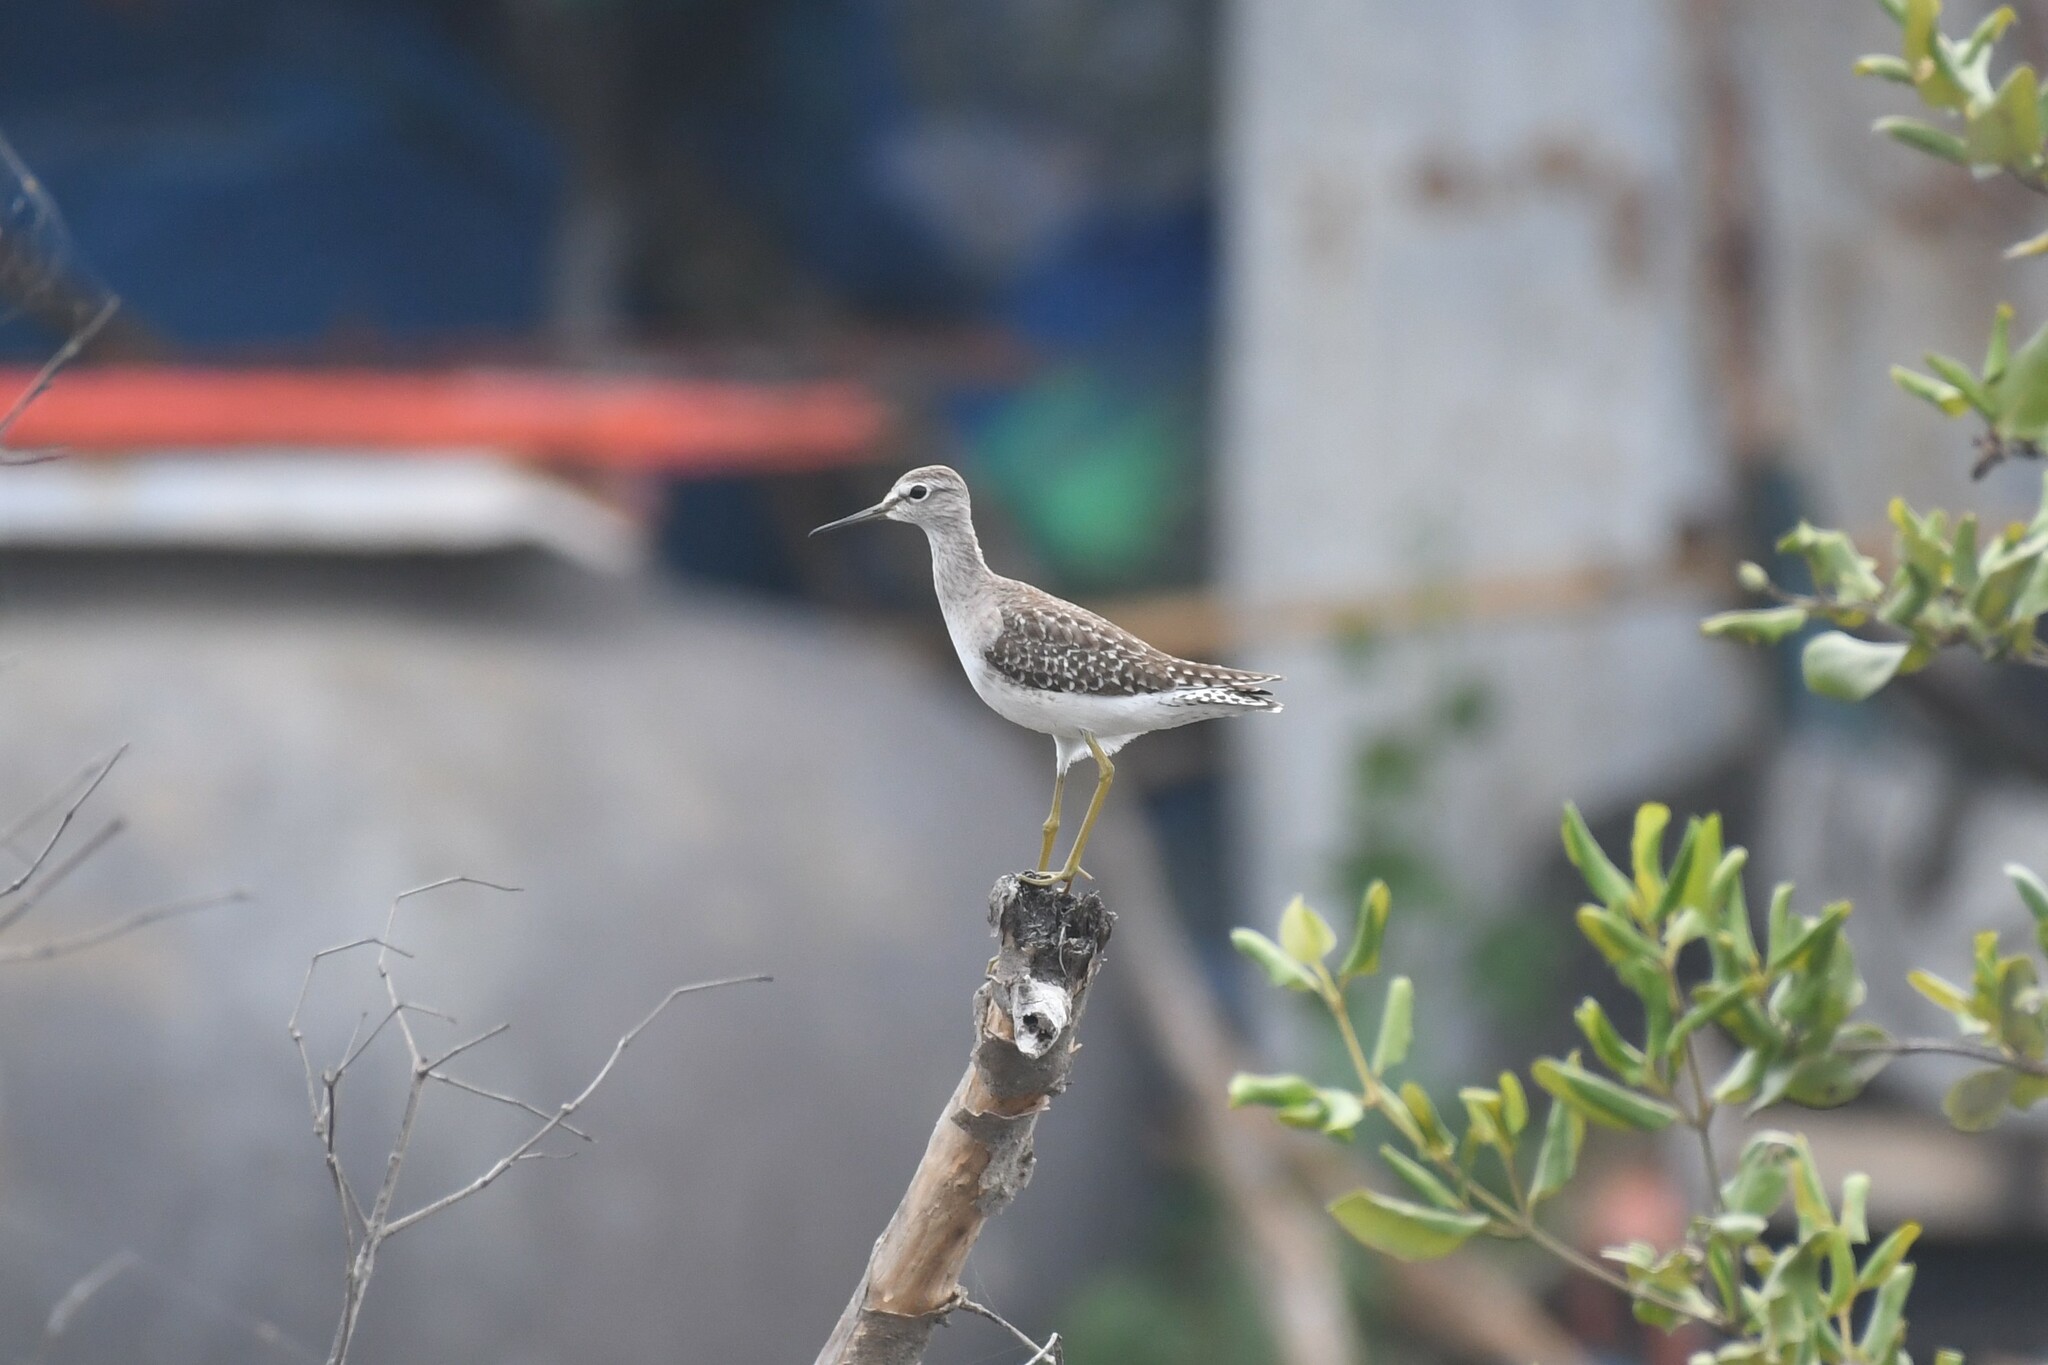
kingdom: Animalia
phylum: Chordata
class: Aves
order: Charadriiformes
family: Scolopacidae
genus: Tringa
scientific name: Tringa glareola
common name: Wood sandpiper
